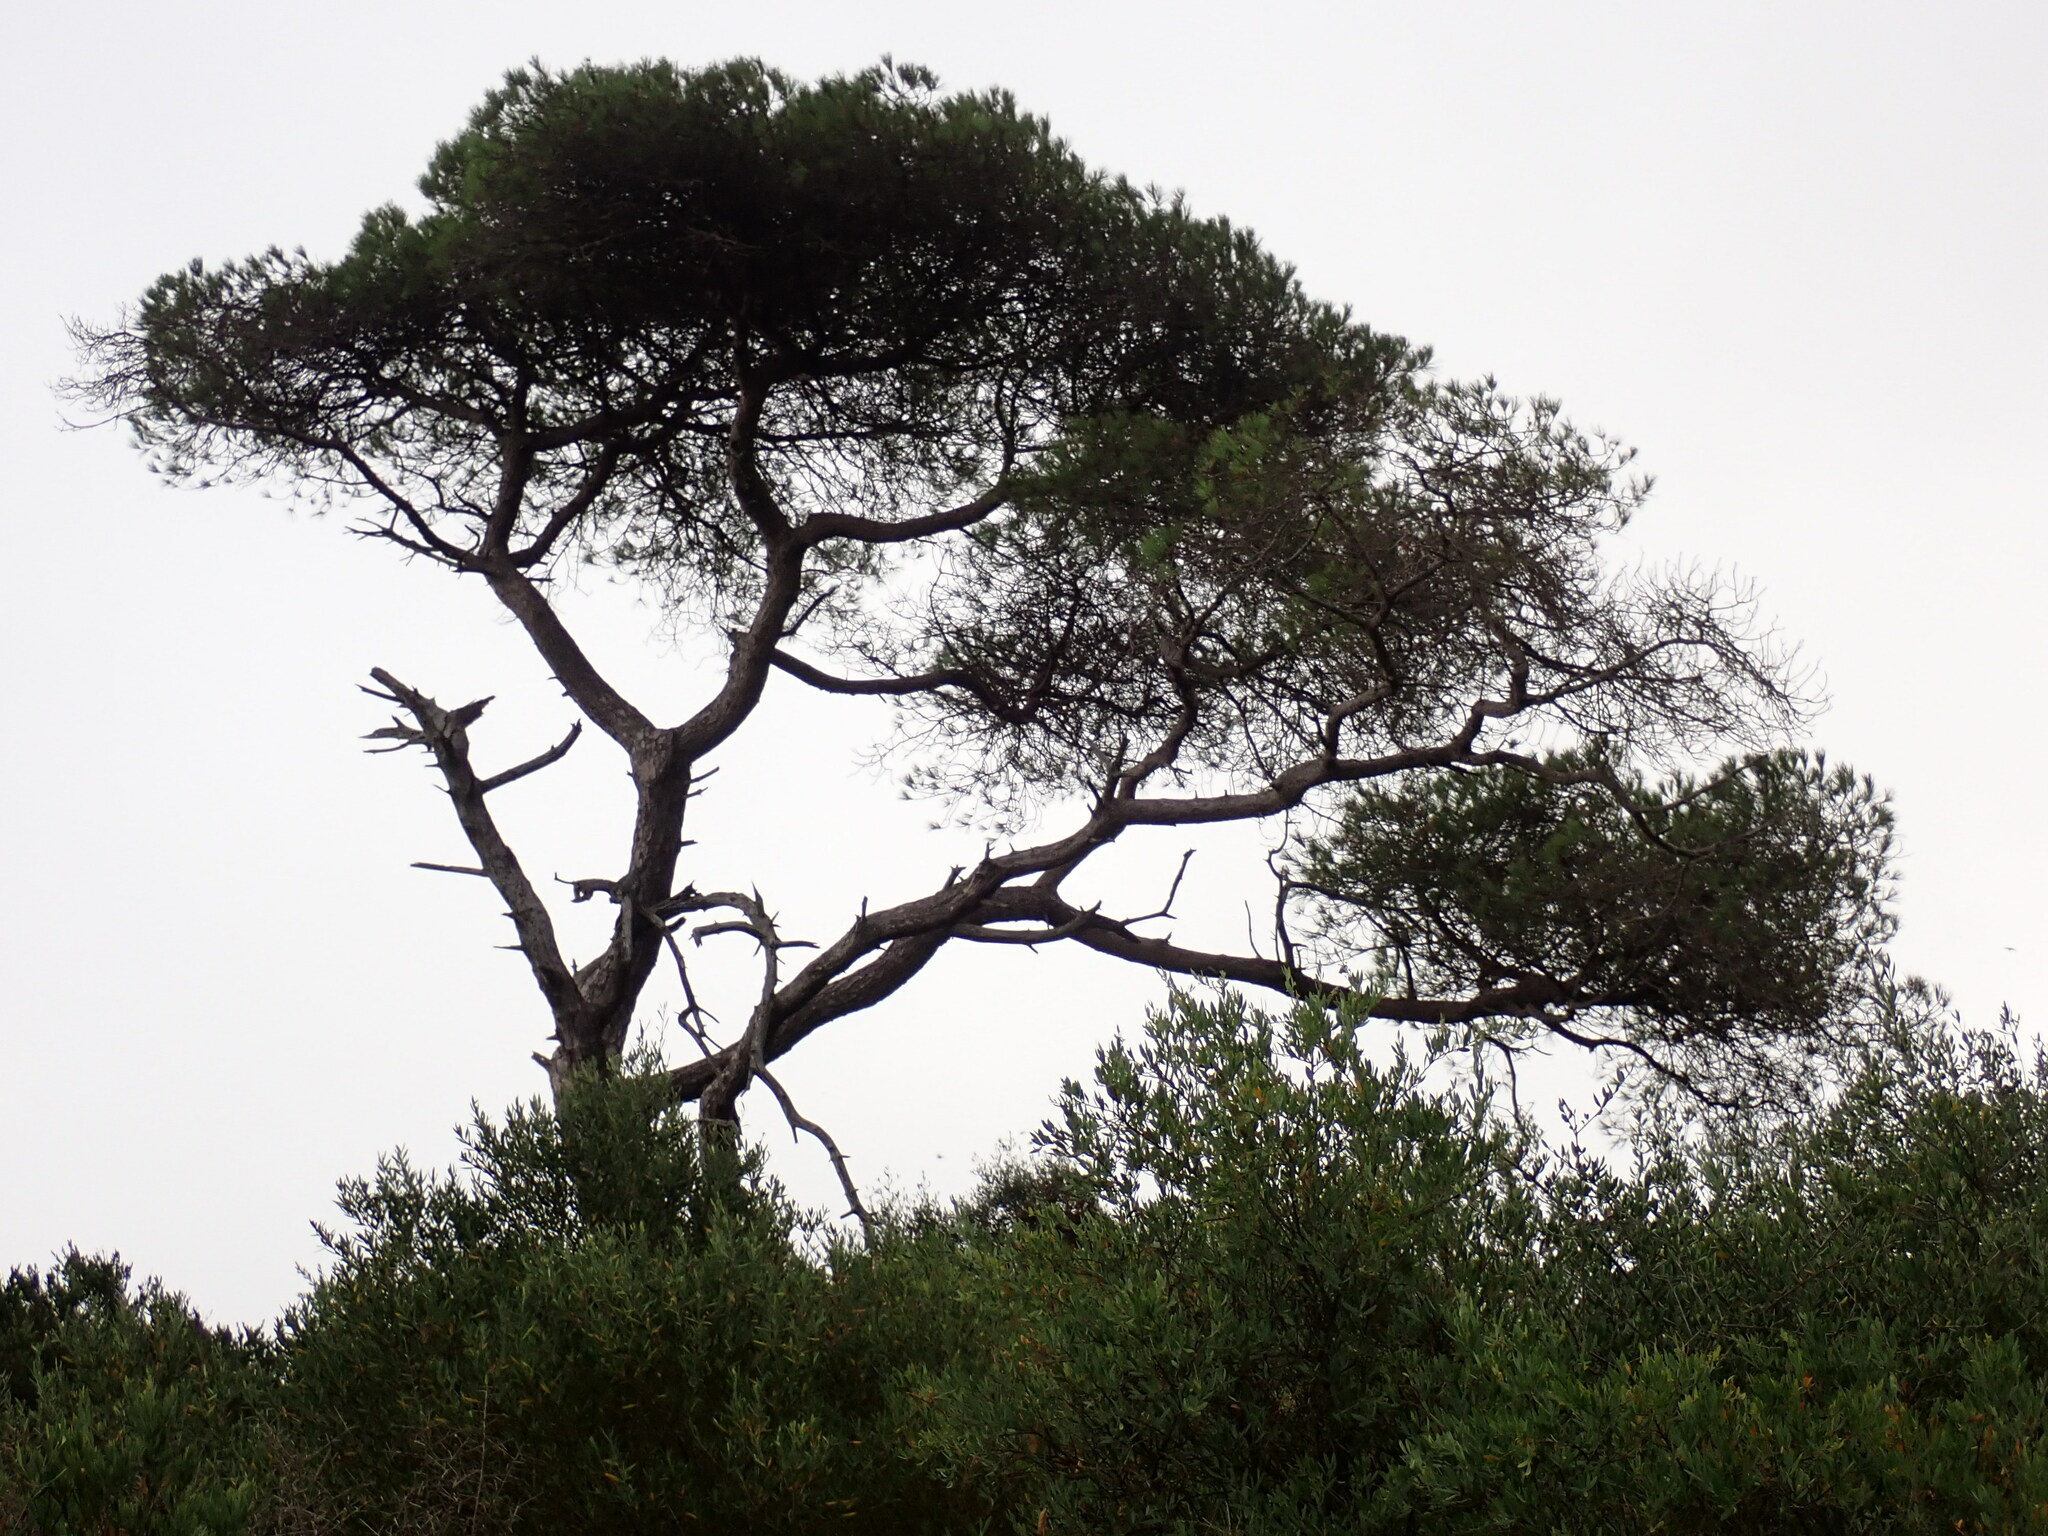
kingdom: Plantae
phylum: Tracheophyta
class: Pinopsida
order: Pinales
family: Pinaceae
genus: Pinus
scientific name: Pinus pinea
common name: Italian stone pine
